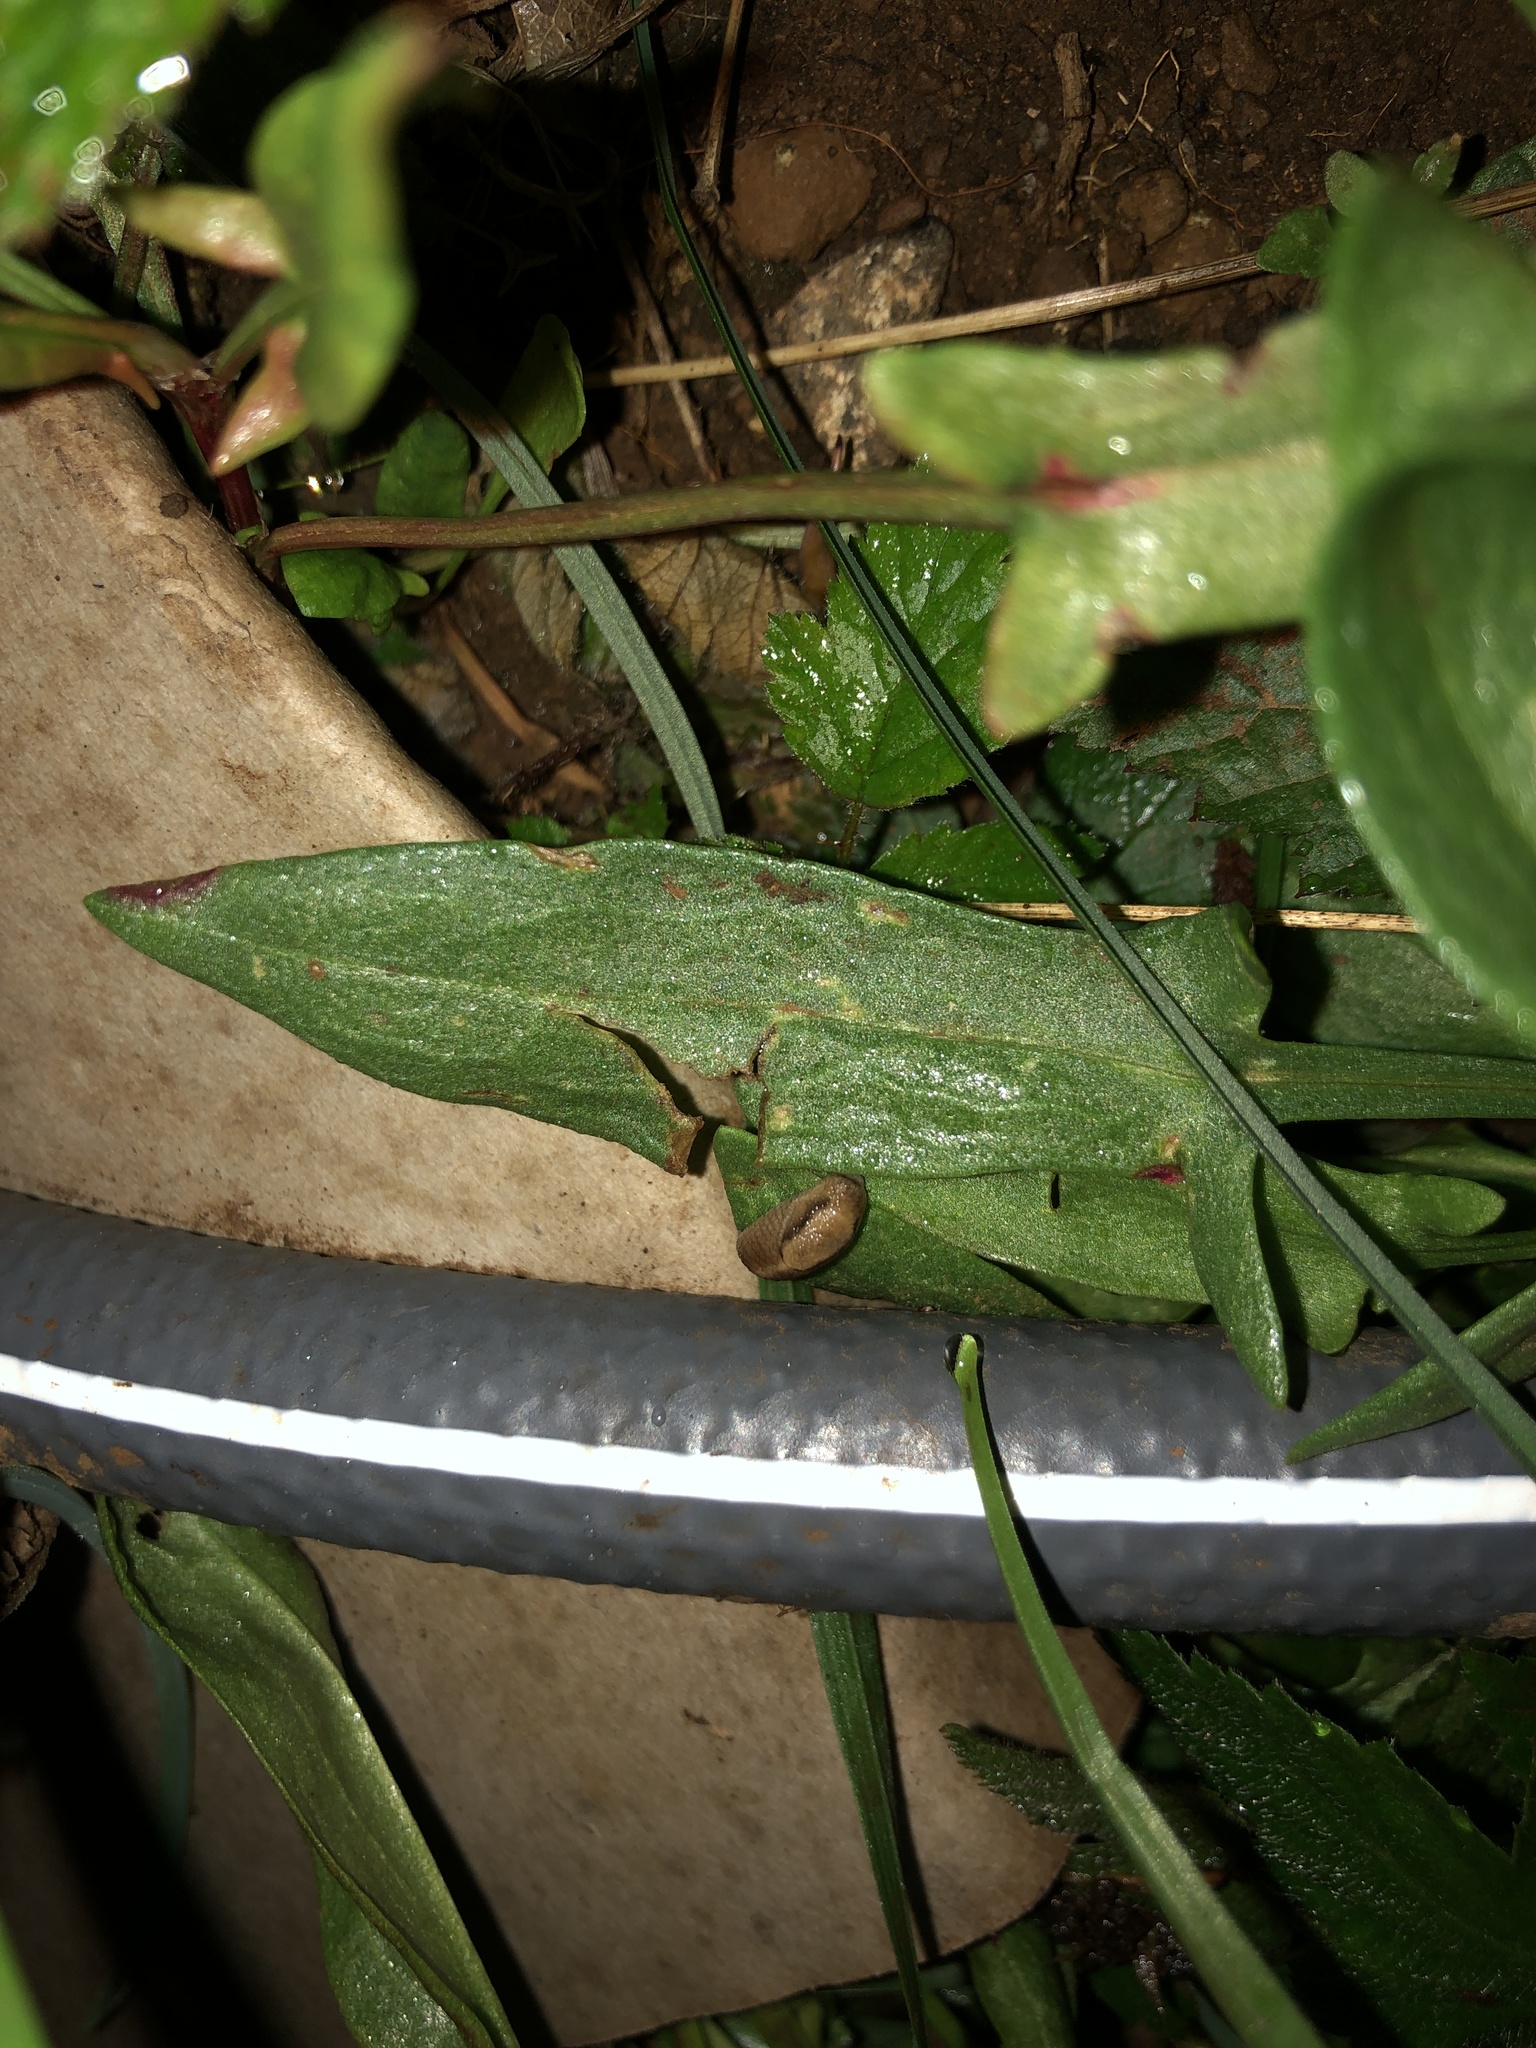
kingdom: Animalia
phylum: Mollusca
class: Gastropoda
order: Stylommatophora
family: Ariolimacidae
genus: Prophysaon
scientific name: Prophysaon andersonii
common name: Reticulate taildropper
